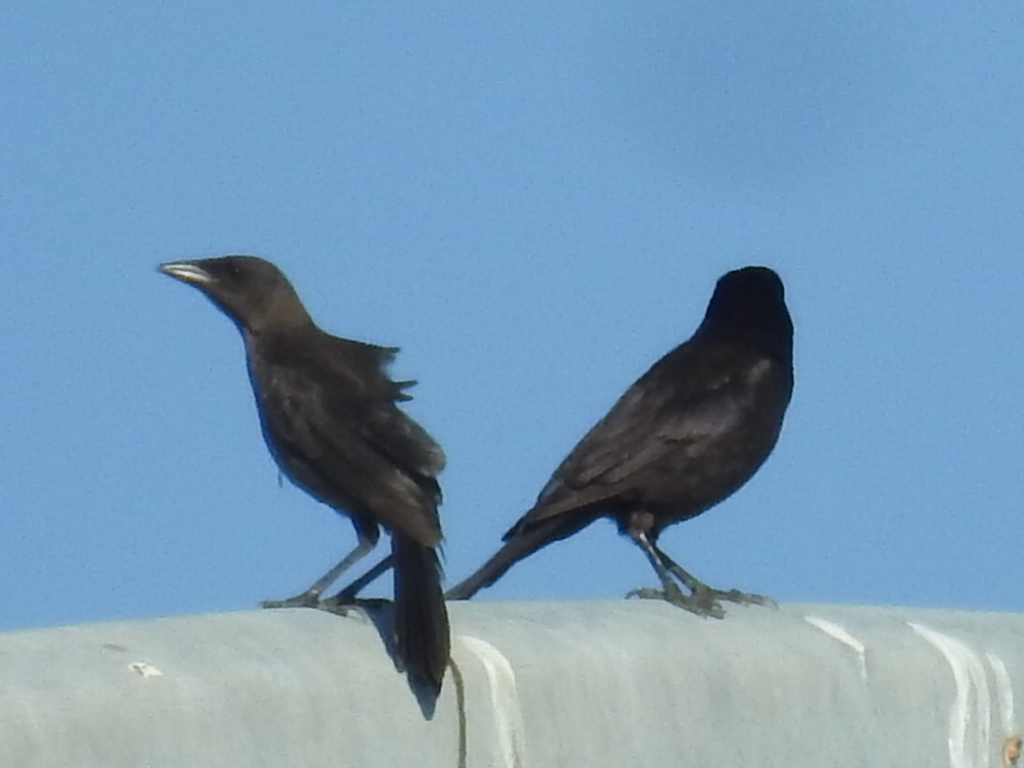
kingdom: Animalia
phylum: Chordata
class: Aves
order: Passeriformes
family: Icteridae
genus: Quiscalus
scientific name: Quiscalus mexicanus
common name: Great-tailed grackle
